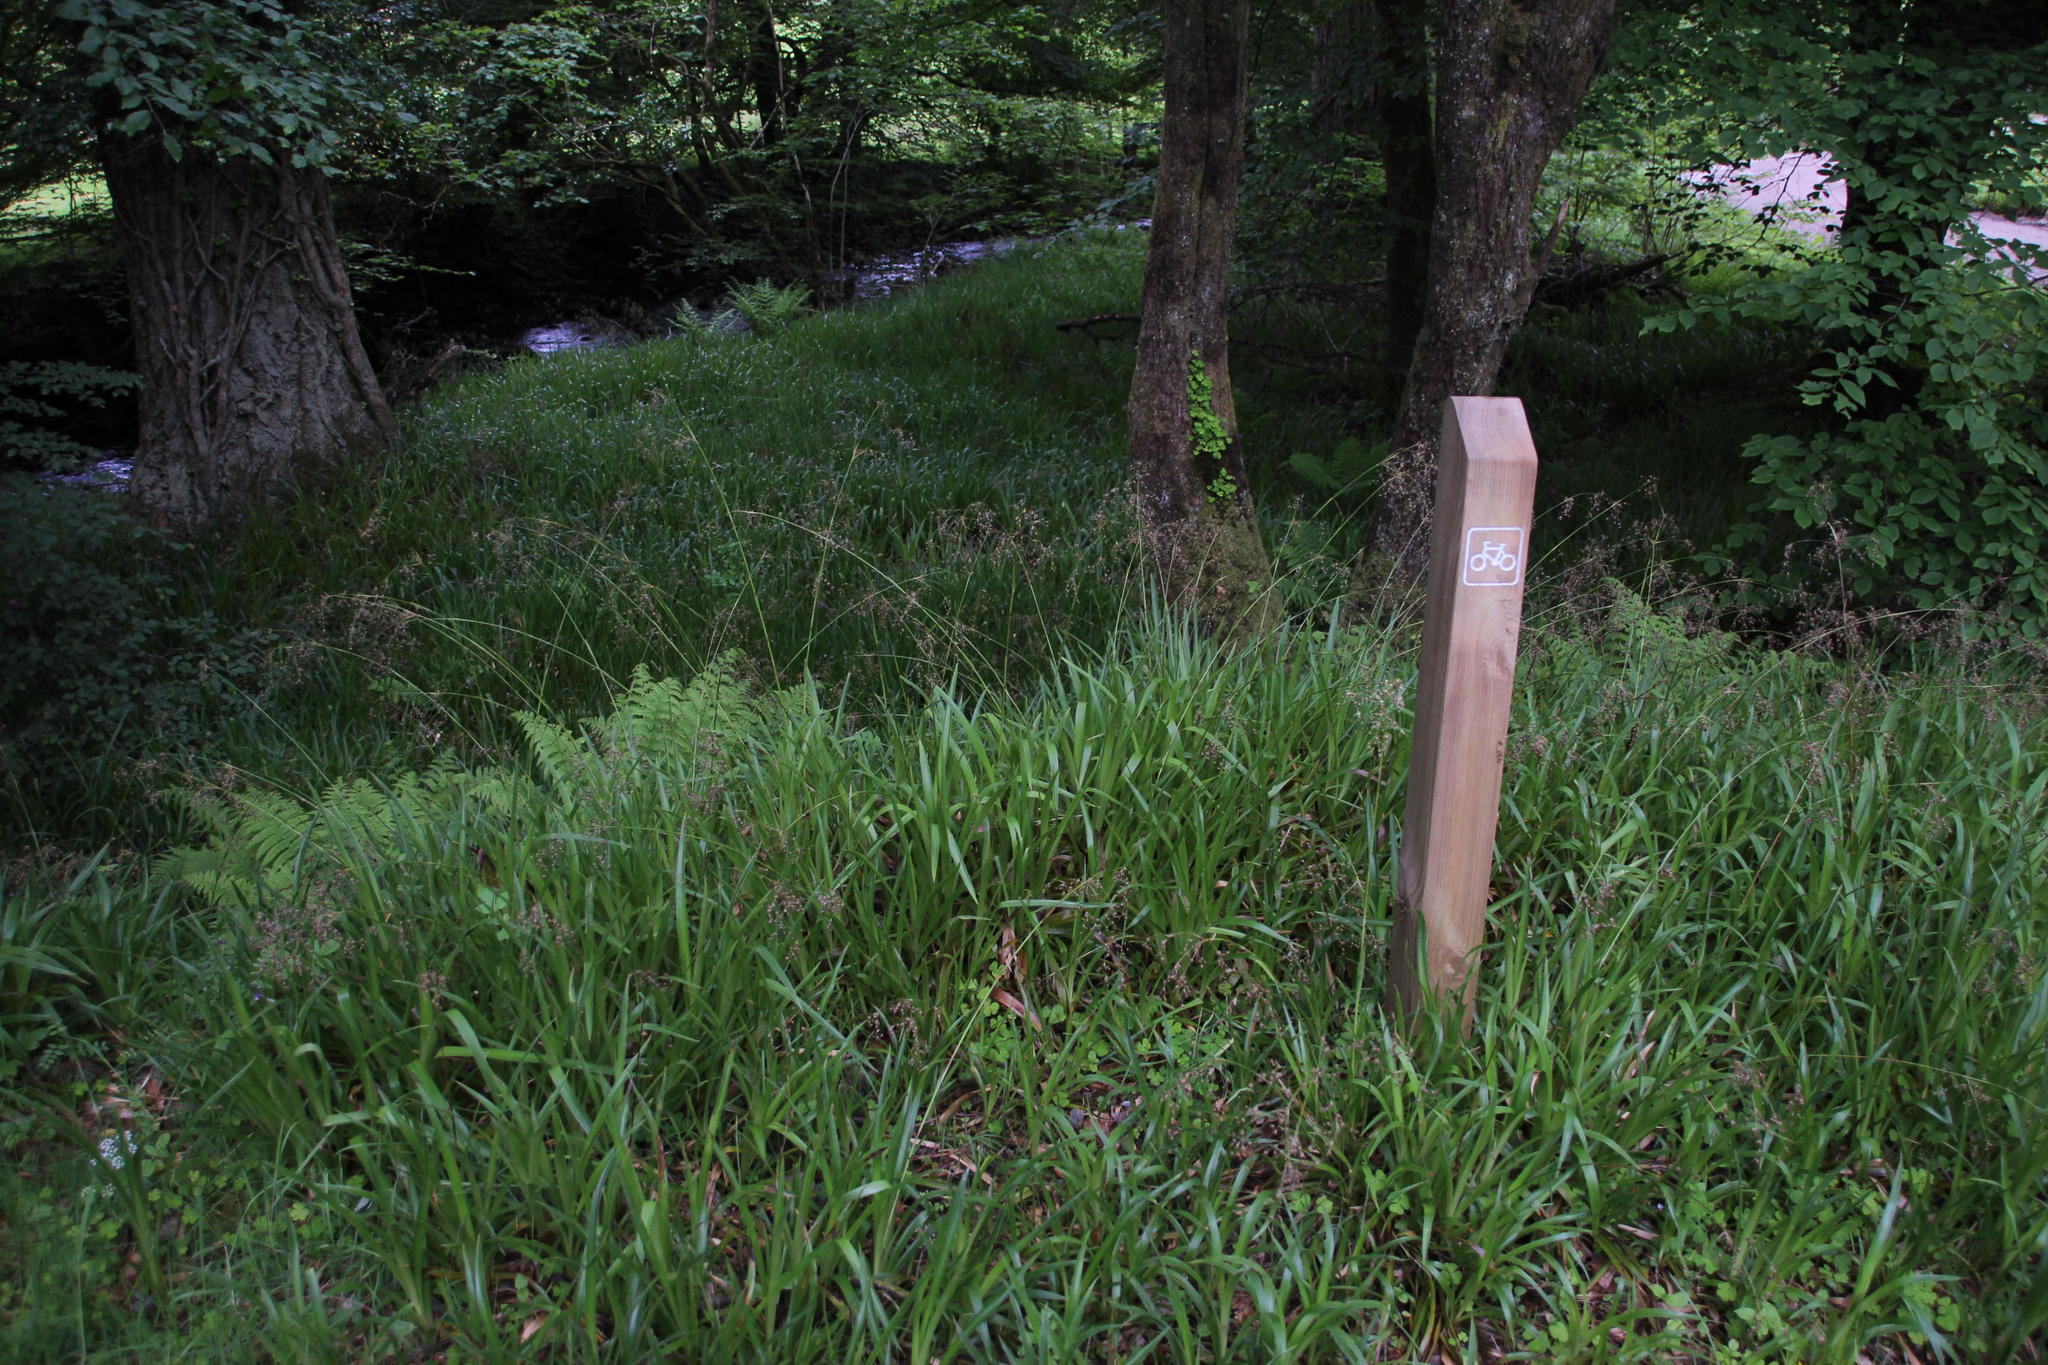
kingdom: Plantae
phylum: Tracheophyta
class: Liliopsida
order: Poales
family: Juncaceae
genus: Luzula
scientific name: Luzula sylvatica
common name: Great wood-rush
